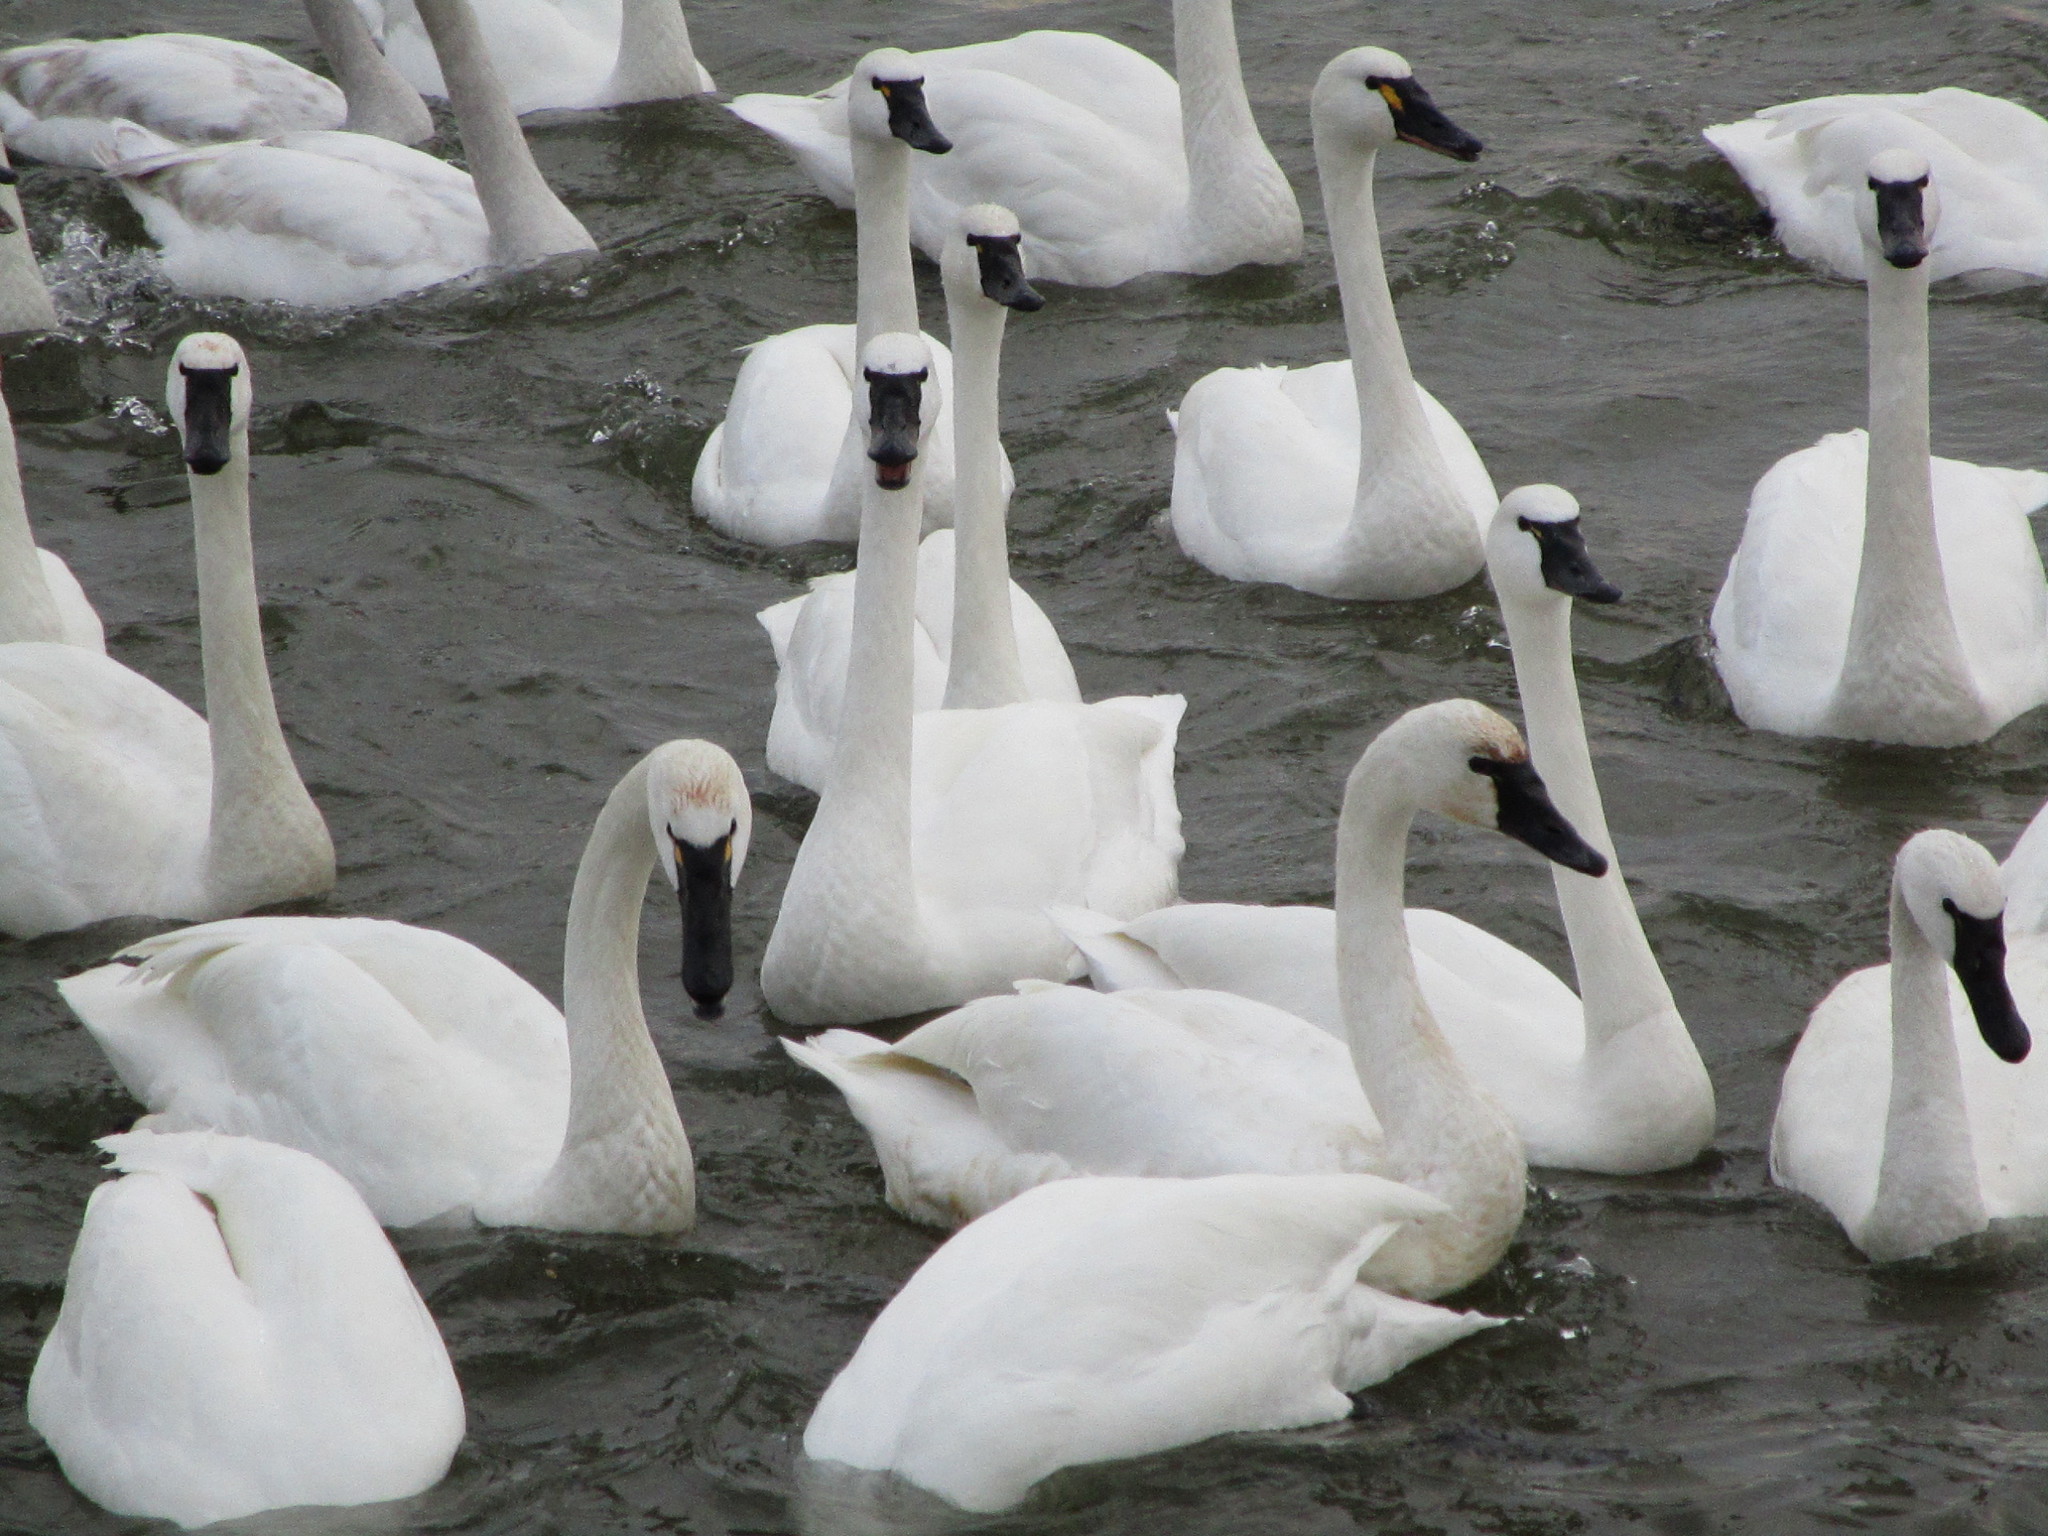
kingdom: Animalia
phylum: Chordata
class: Aves
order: Anseriformes
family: Anatidae
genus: Cygnus
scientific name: Cygnus columbianus
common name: Tundra swan
